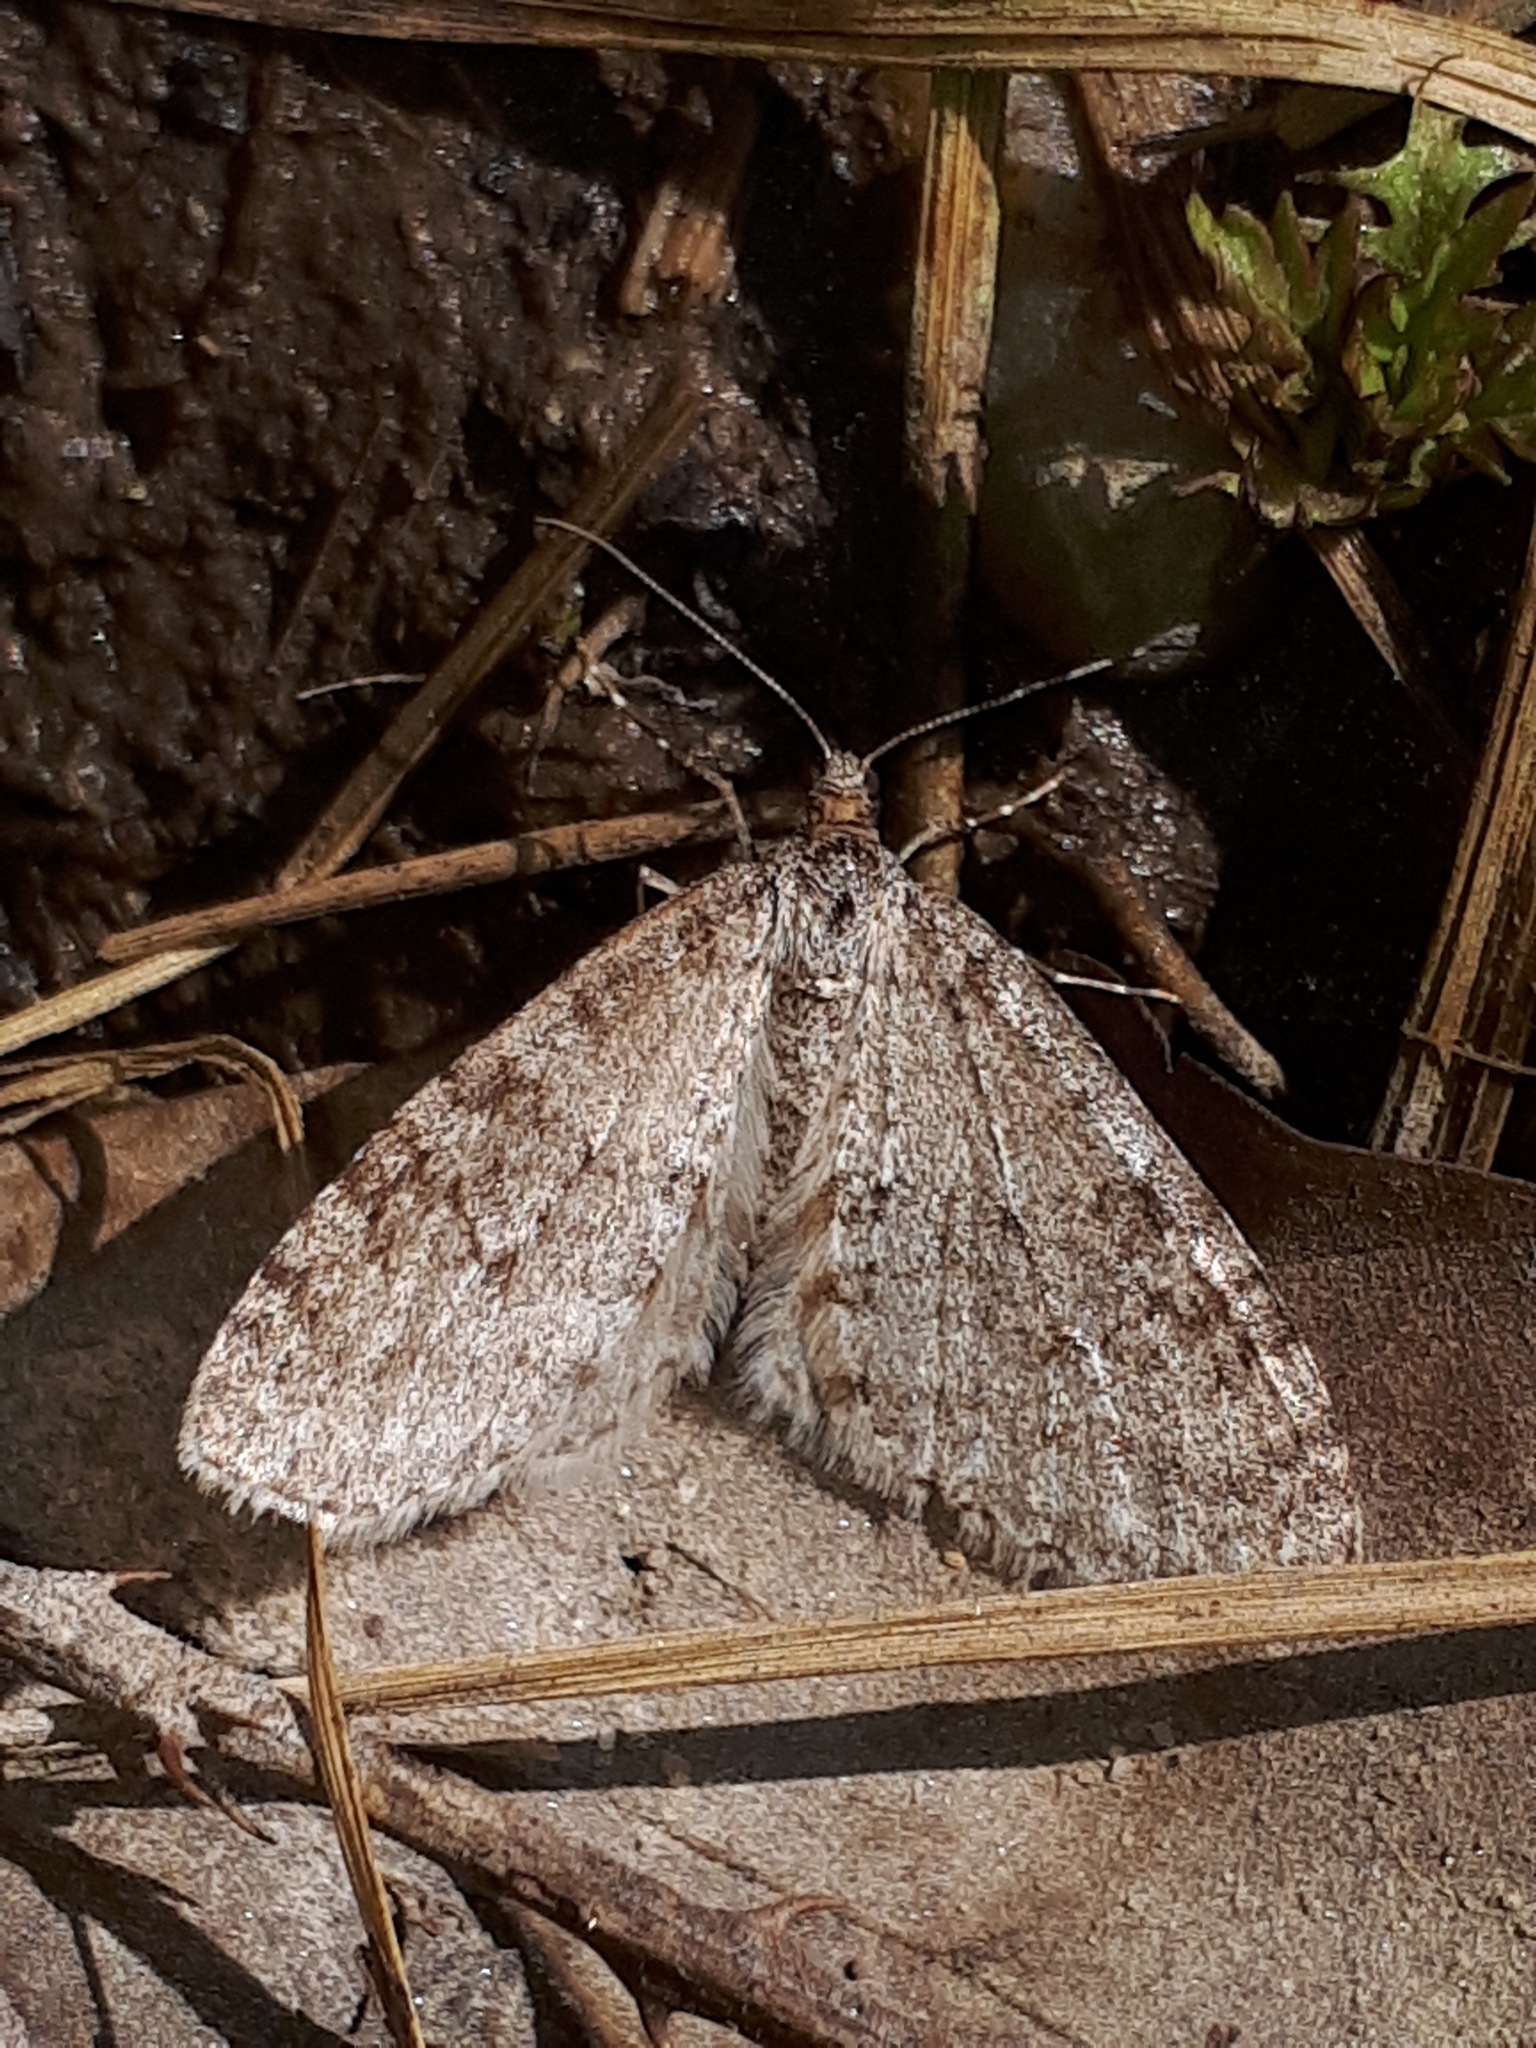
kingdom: Animalia
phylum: Arthropoda
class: Insecta
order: Lepidoptera
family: Geometridae
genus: Trichopteryx
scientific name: Trichopteryx carpinata
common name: Early tooth-striped
